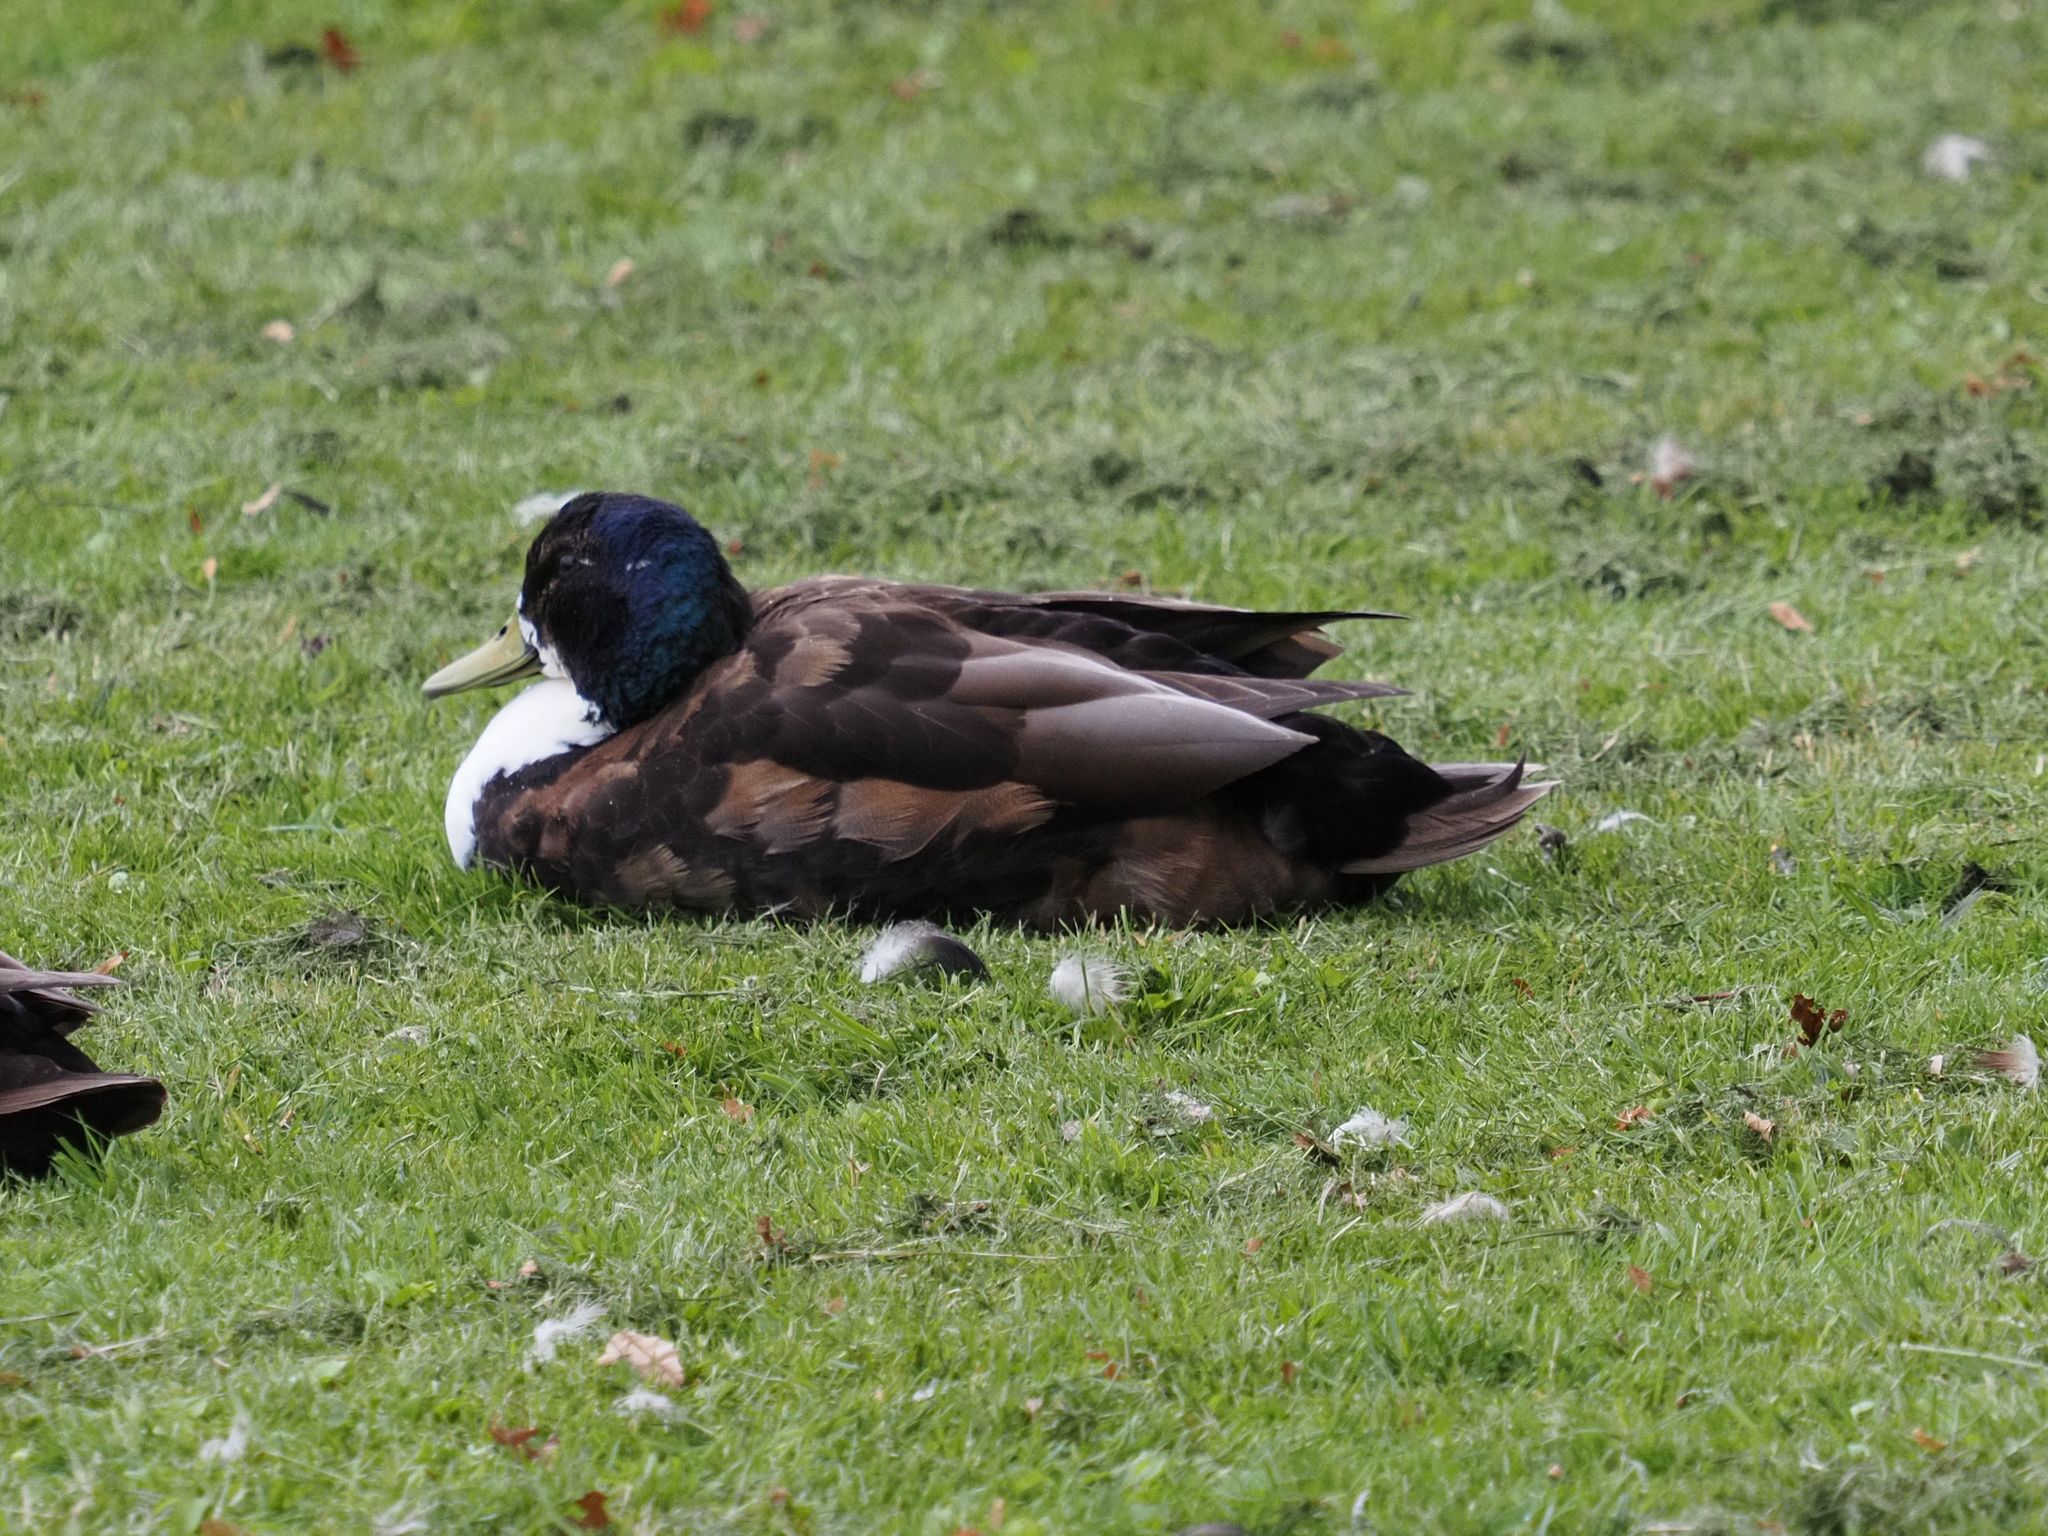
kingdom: Animalia
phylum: Chordata
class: Aves
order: Anseriformes
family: Anatidae
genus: Anas
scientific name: Anas platyrhynchos
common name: Mallard
